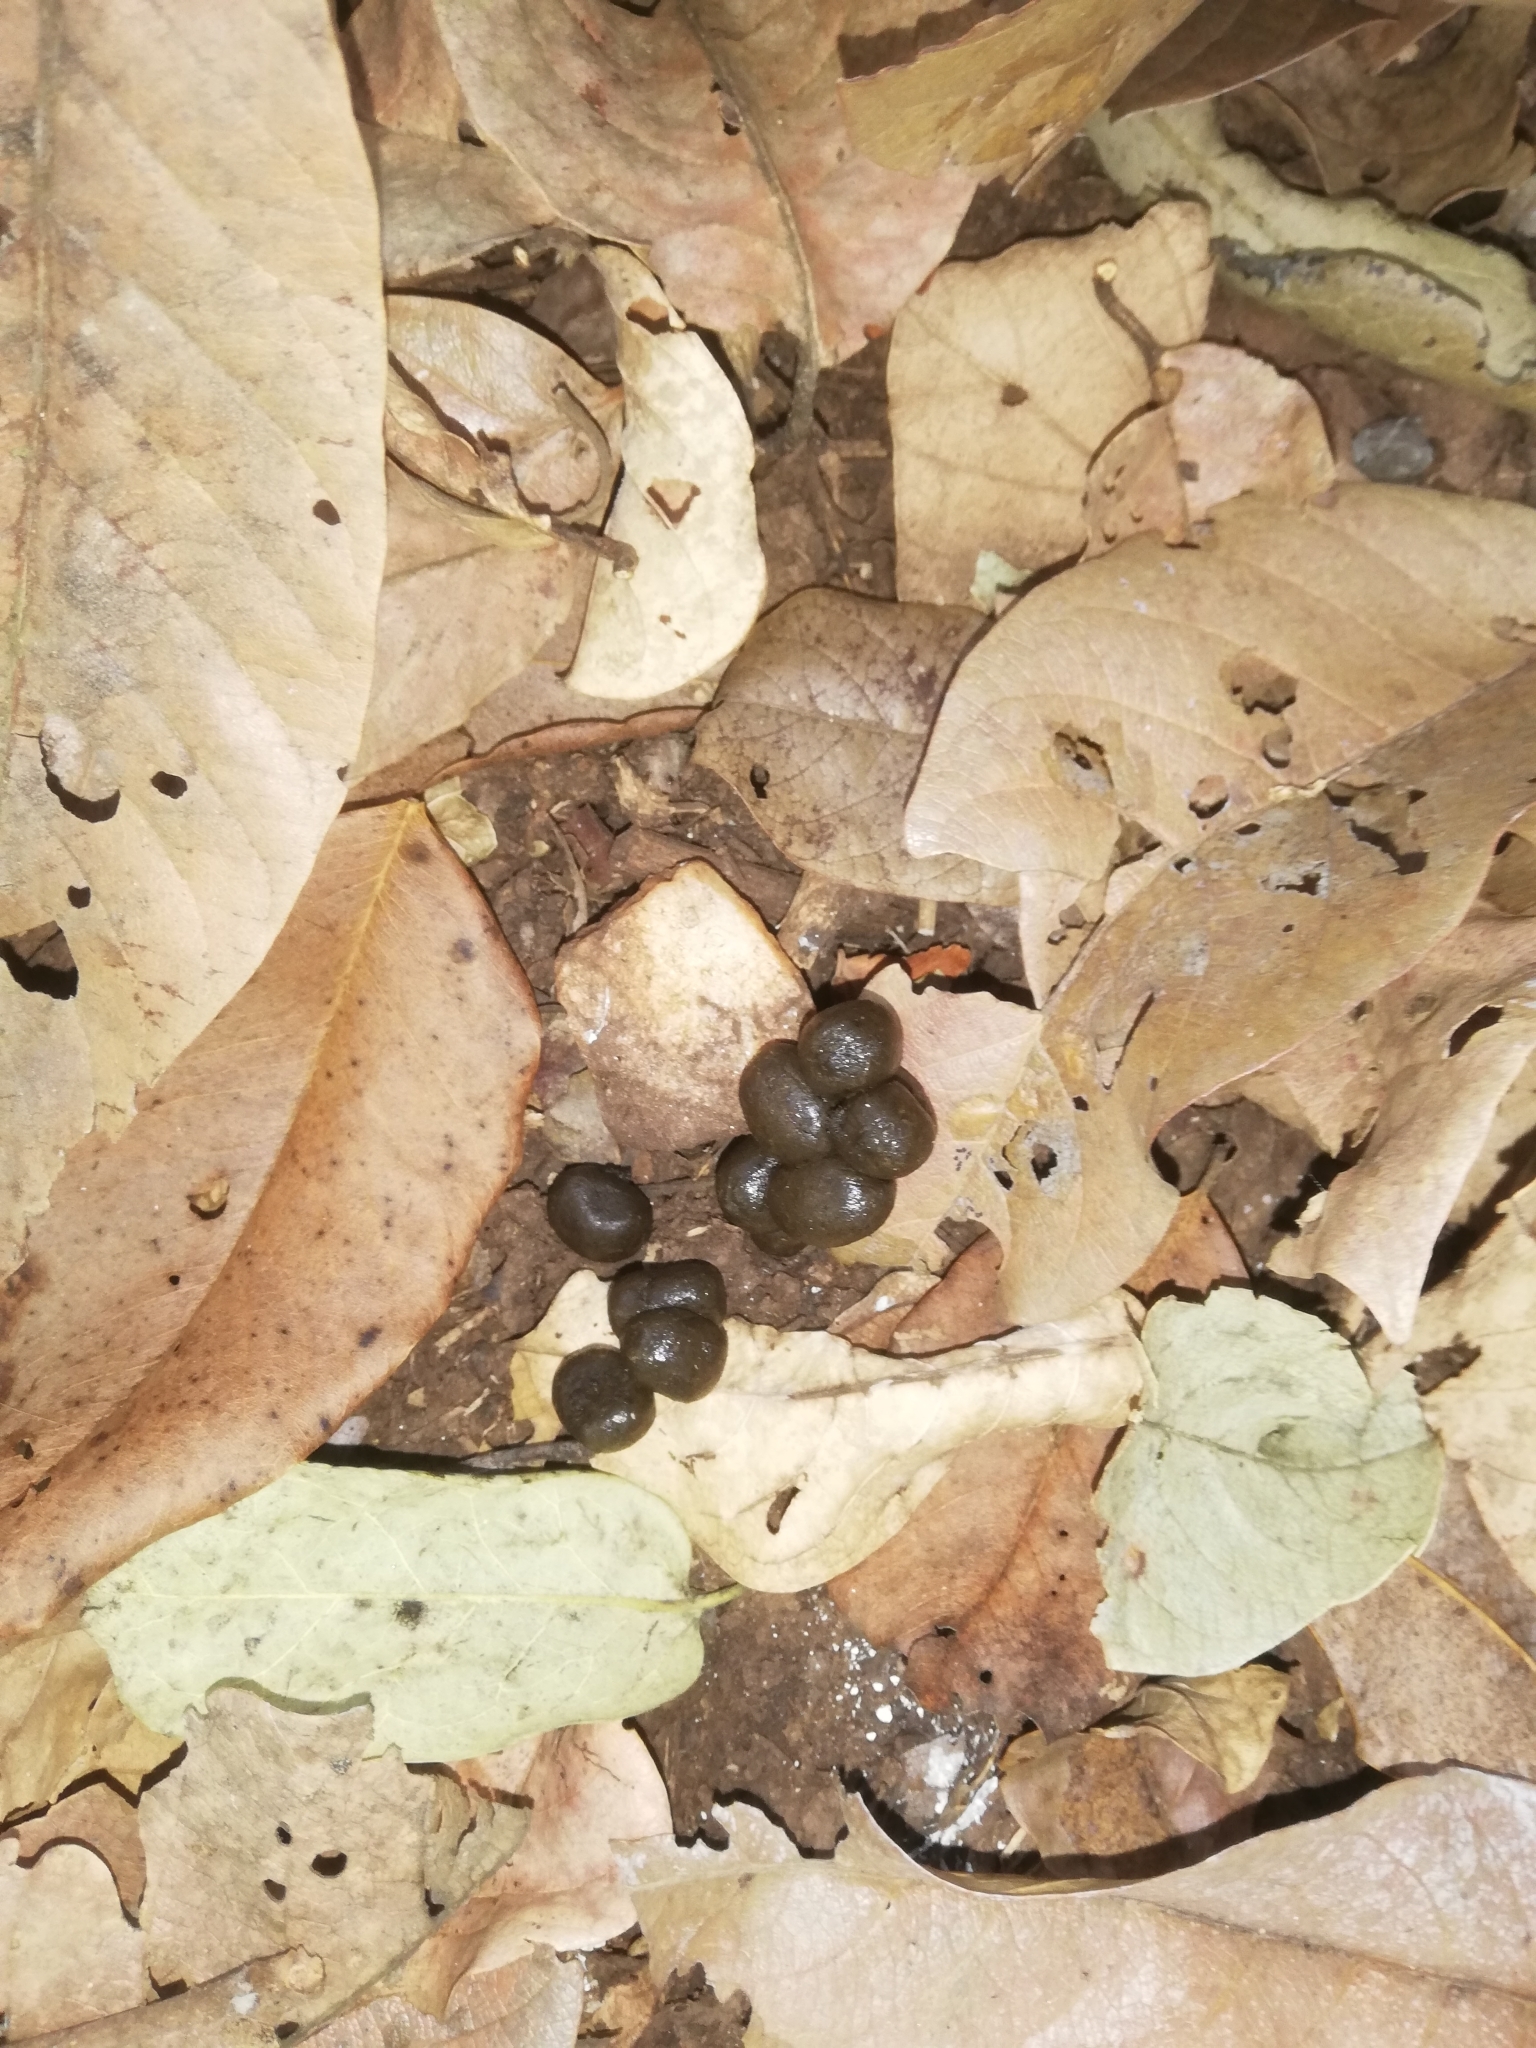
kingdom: Animalia
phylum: Chordata
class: Mammalia
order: Artiodactyla
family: Cervidae
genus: Axis
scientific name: Axis axis
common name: Chital
